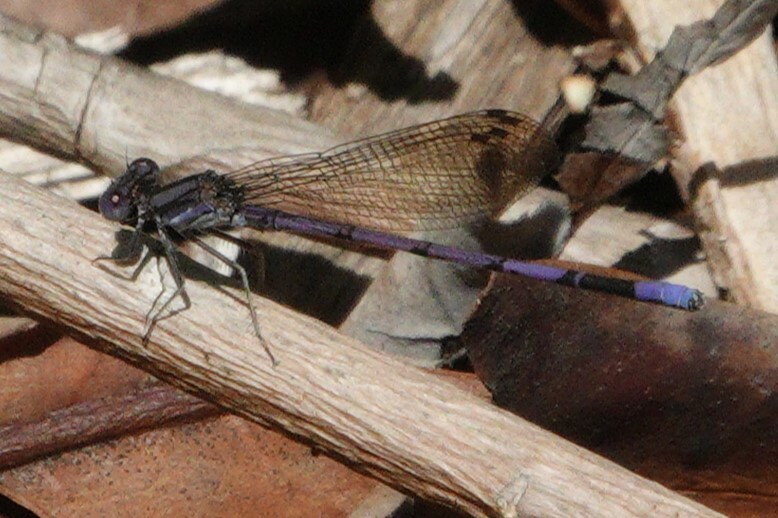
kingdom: Animalia
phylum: Arthropoda
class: Insecta
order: Odonata
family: Coenagrionidae
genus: Argia
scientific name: Argia fumipennis
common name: Variable dancer
